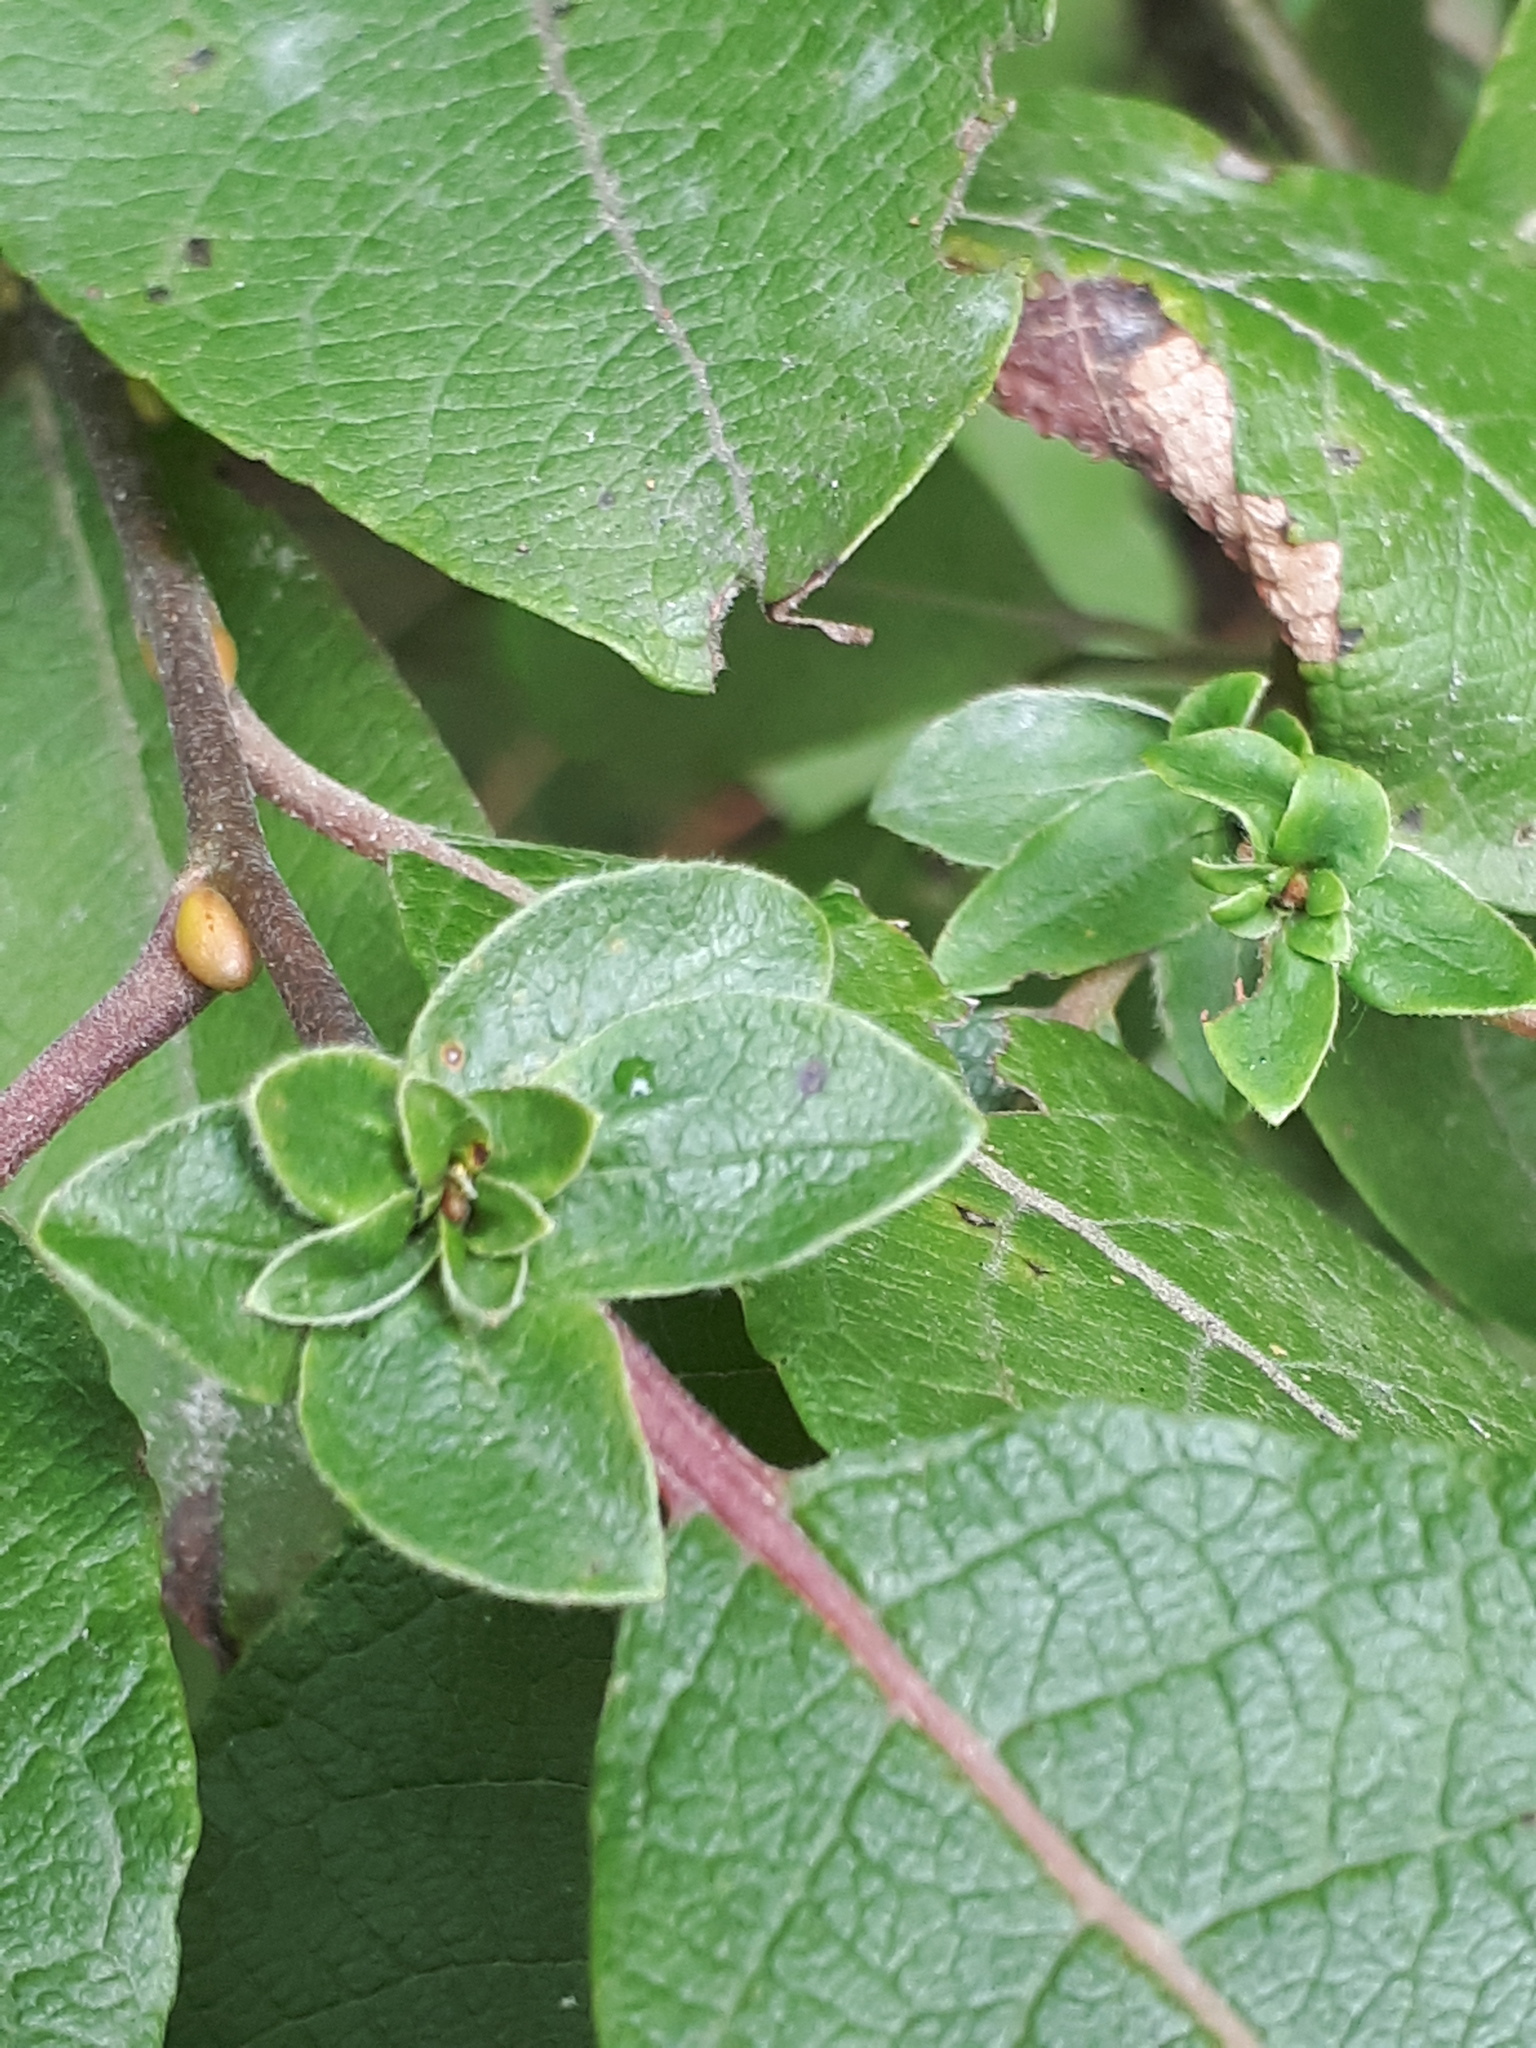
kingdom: Animalia
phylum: Arthropoda
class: Insecta
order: Diptera
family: Cecidomyiidae
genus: Rabdophaga
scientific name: Rabdophaga rosaria
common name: Willow rose gall midge
